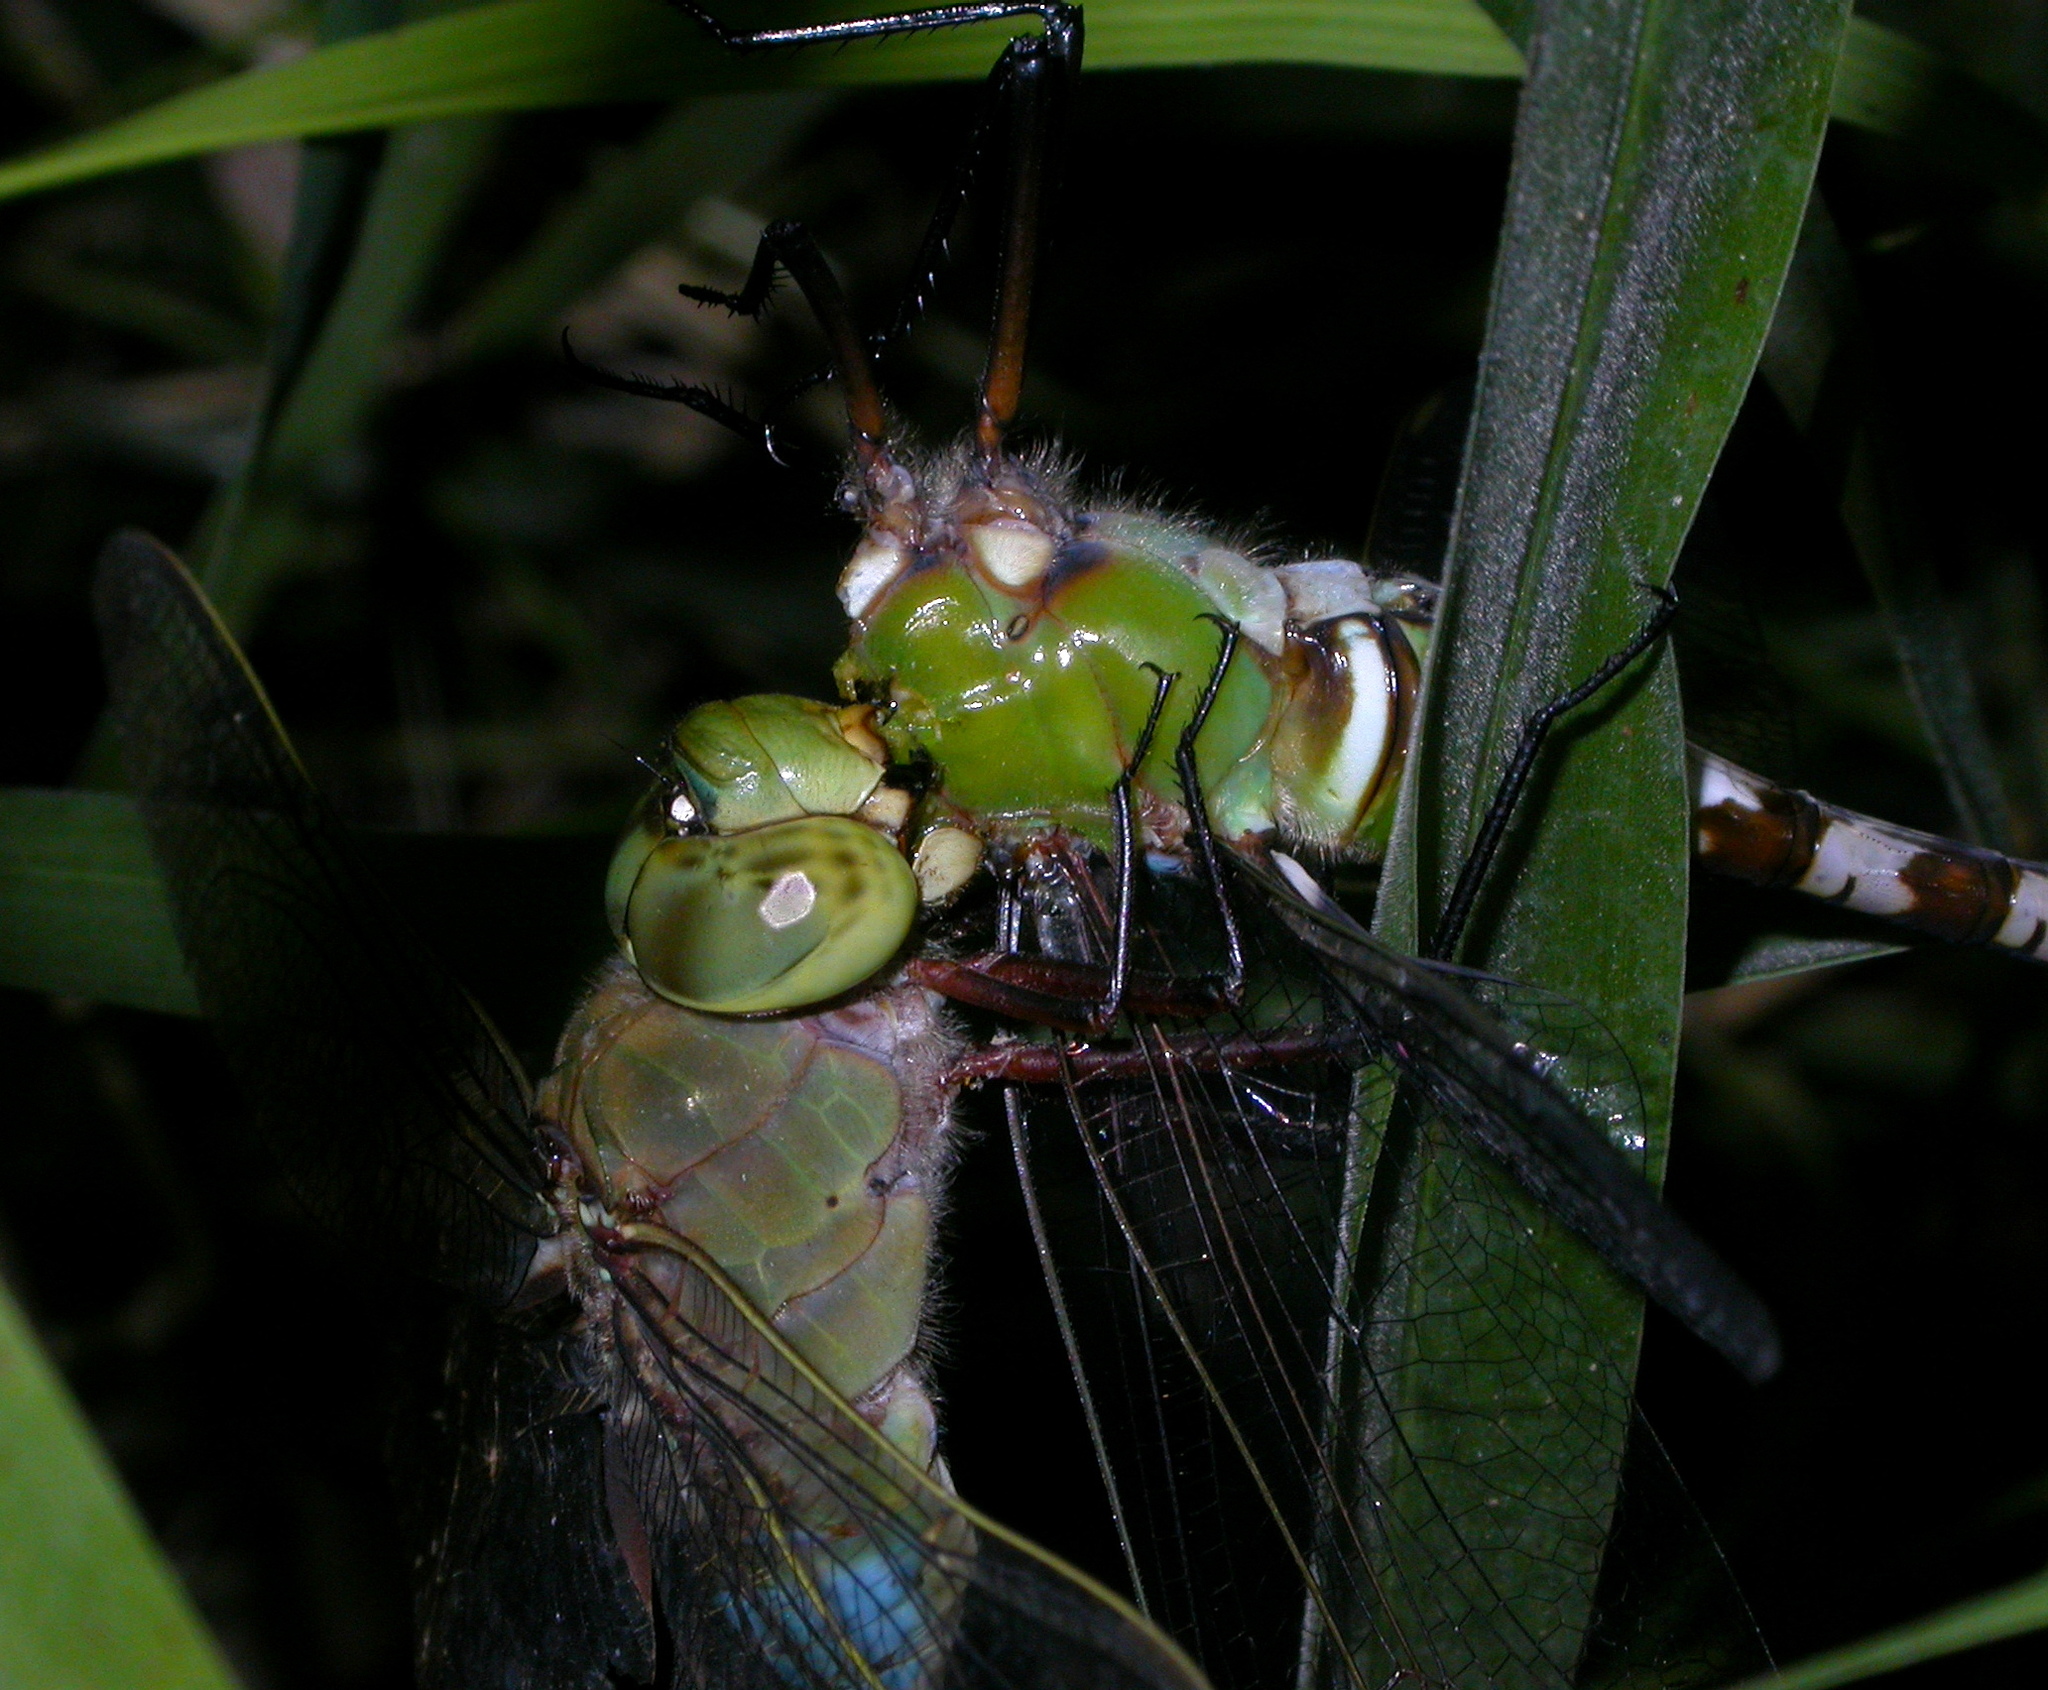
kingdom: Animalia
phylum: Arthropoda
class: Insecta
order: Odonata
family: Aeshnidae
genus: Anax
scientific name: Anax junius
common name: Common green darner
